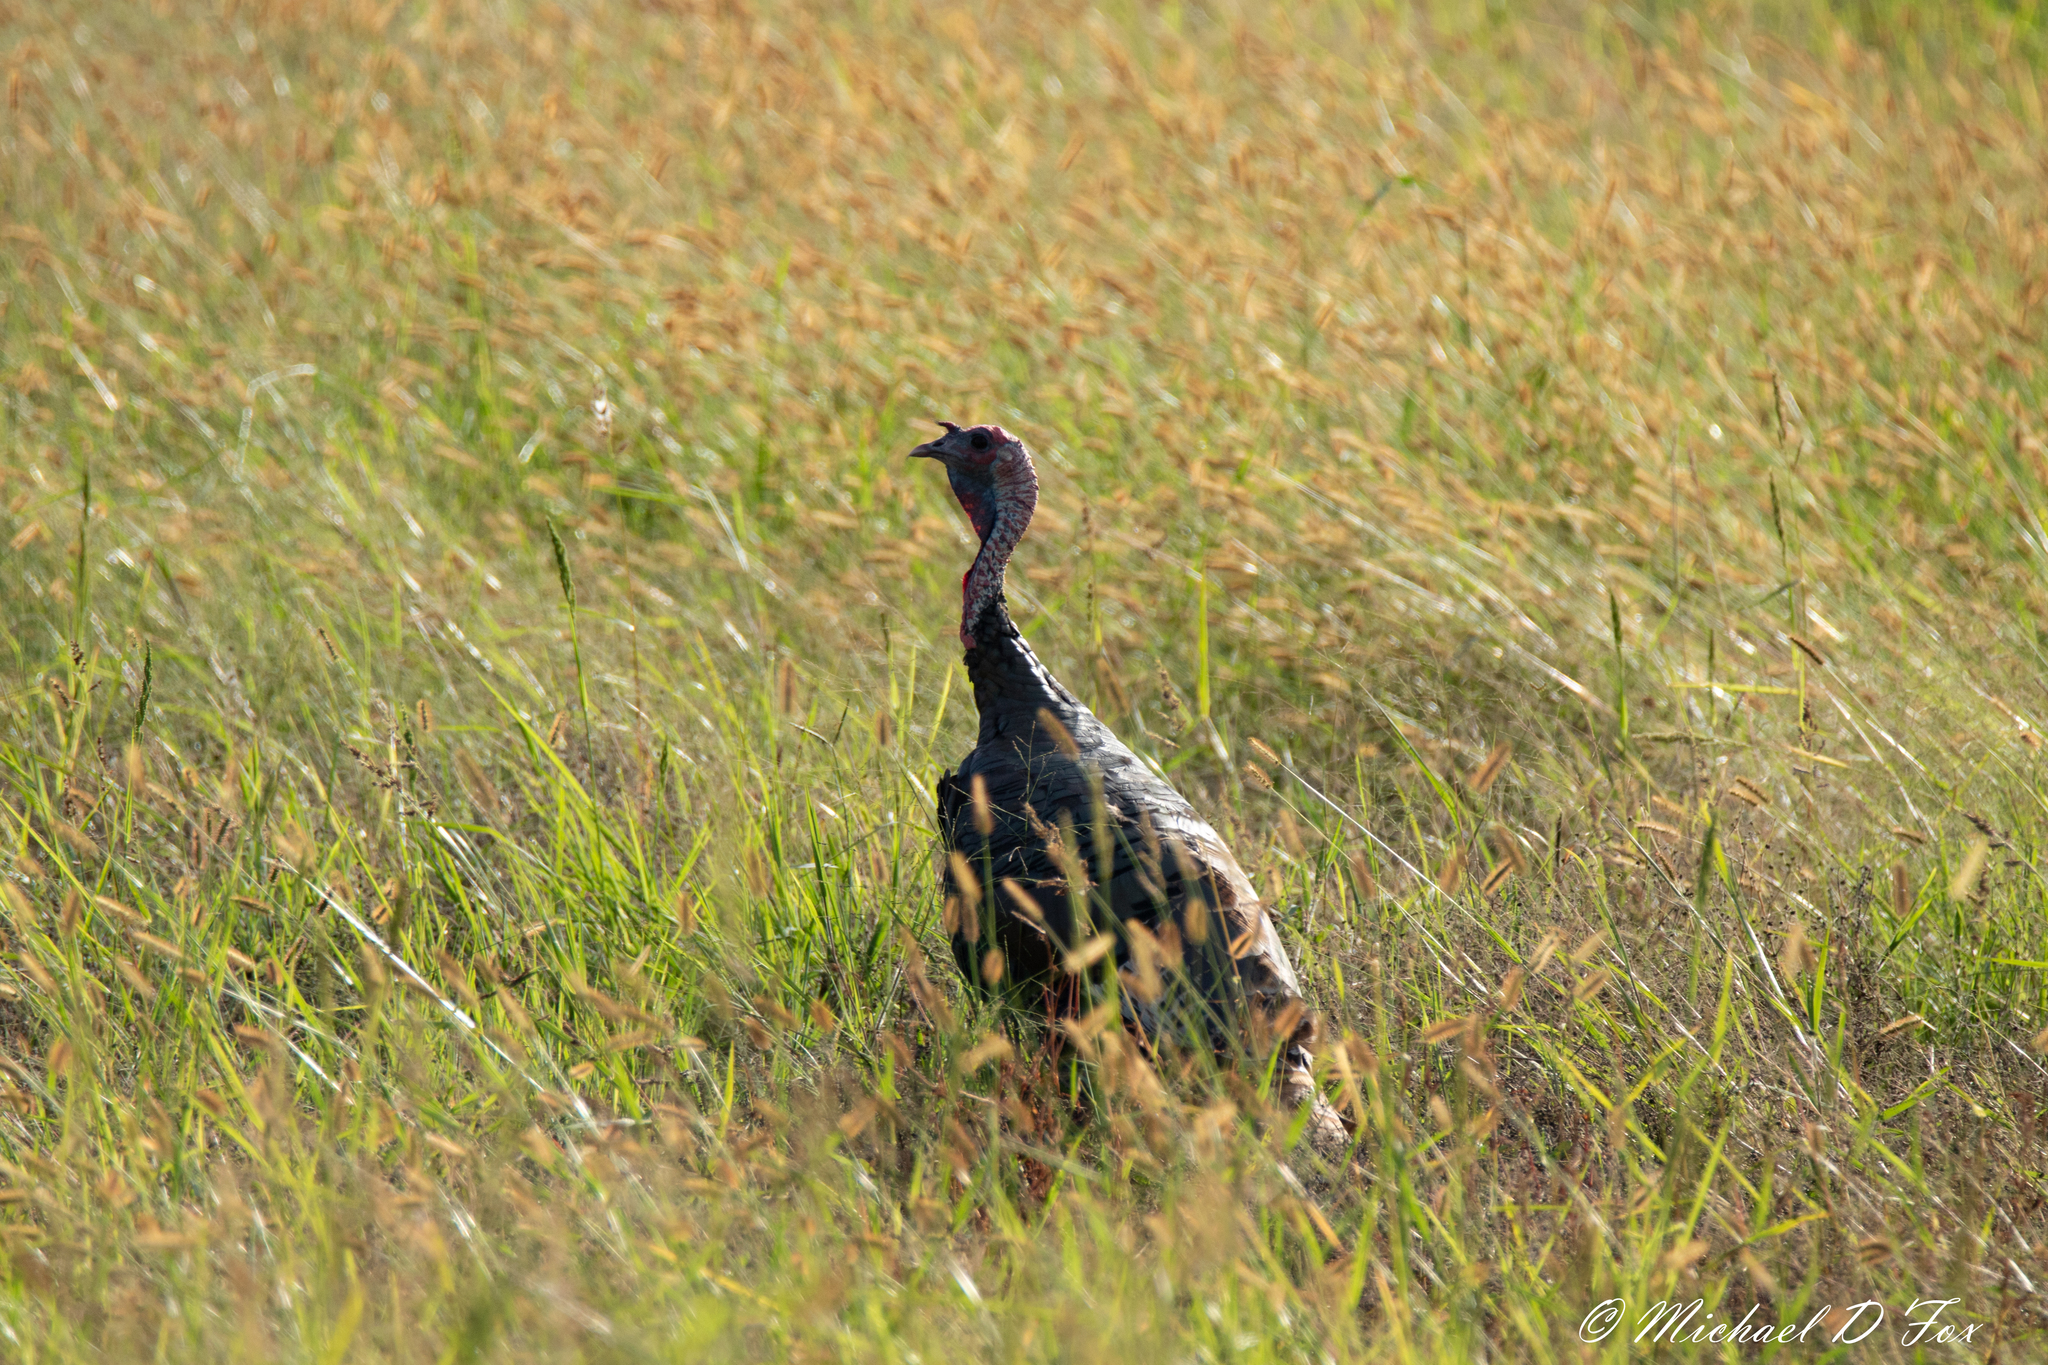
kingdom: Animalia
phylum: Chordata
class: Aves
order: Galliformes
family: Phasianidae
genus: Meleagris
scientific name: Meleagris gallopavo
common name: Wild turkey
